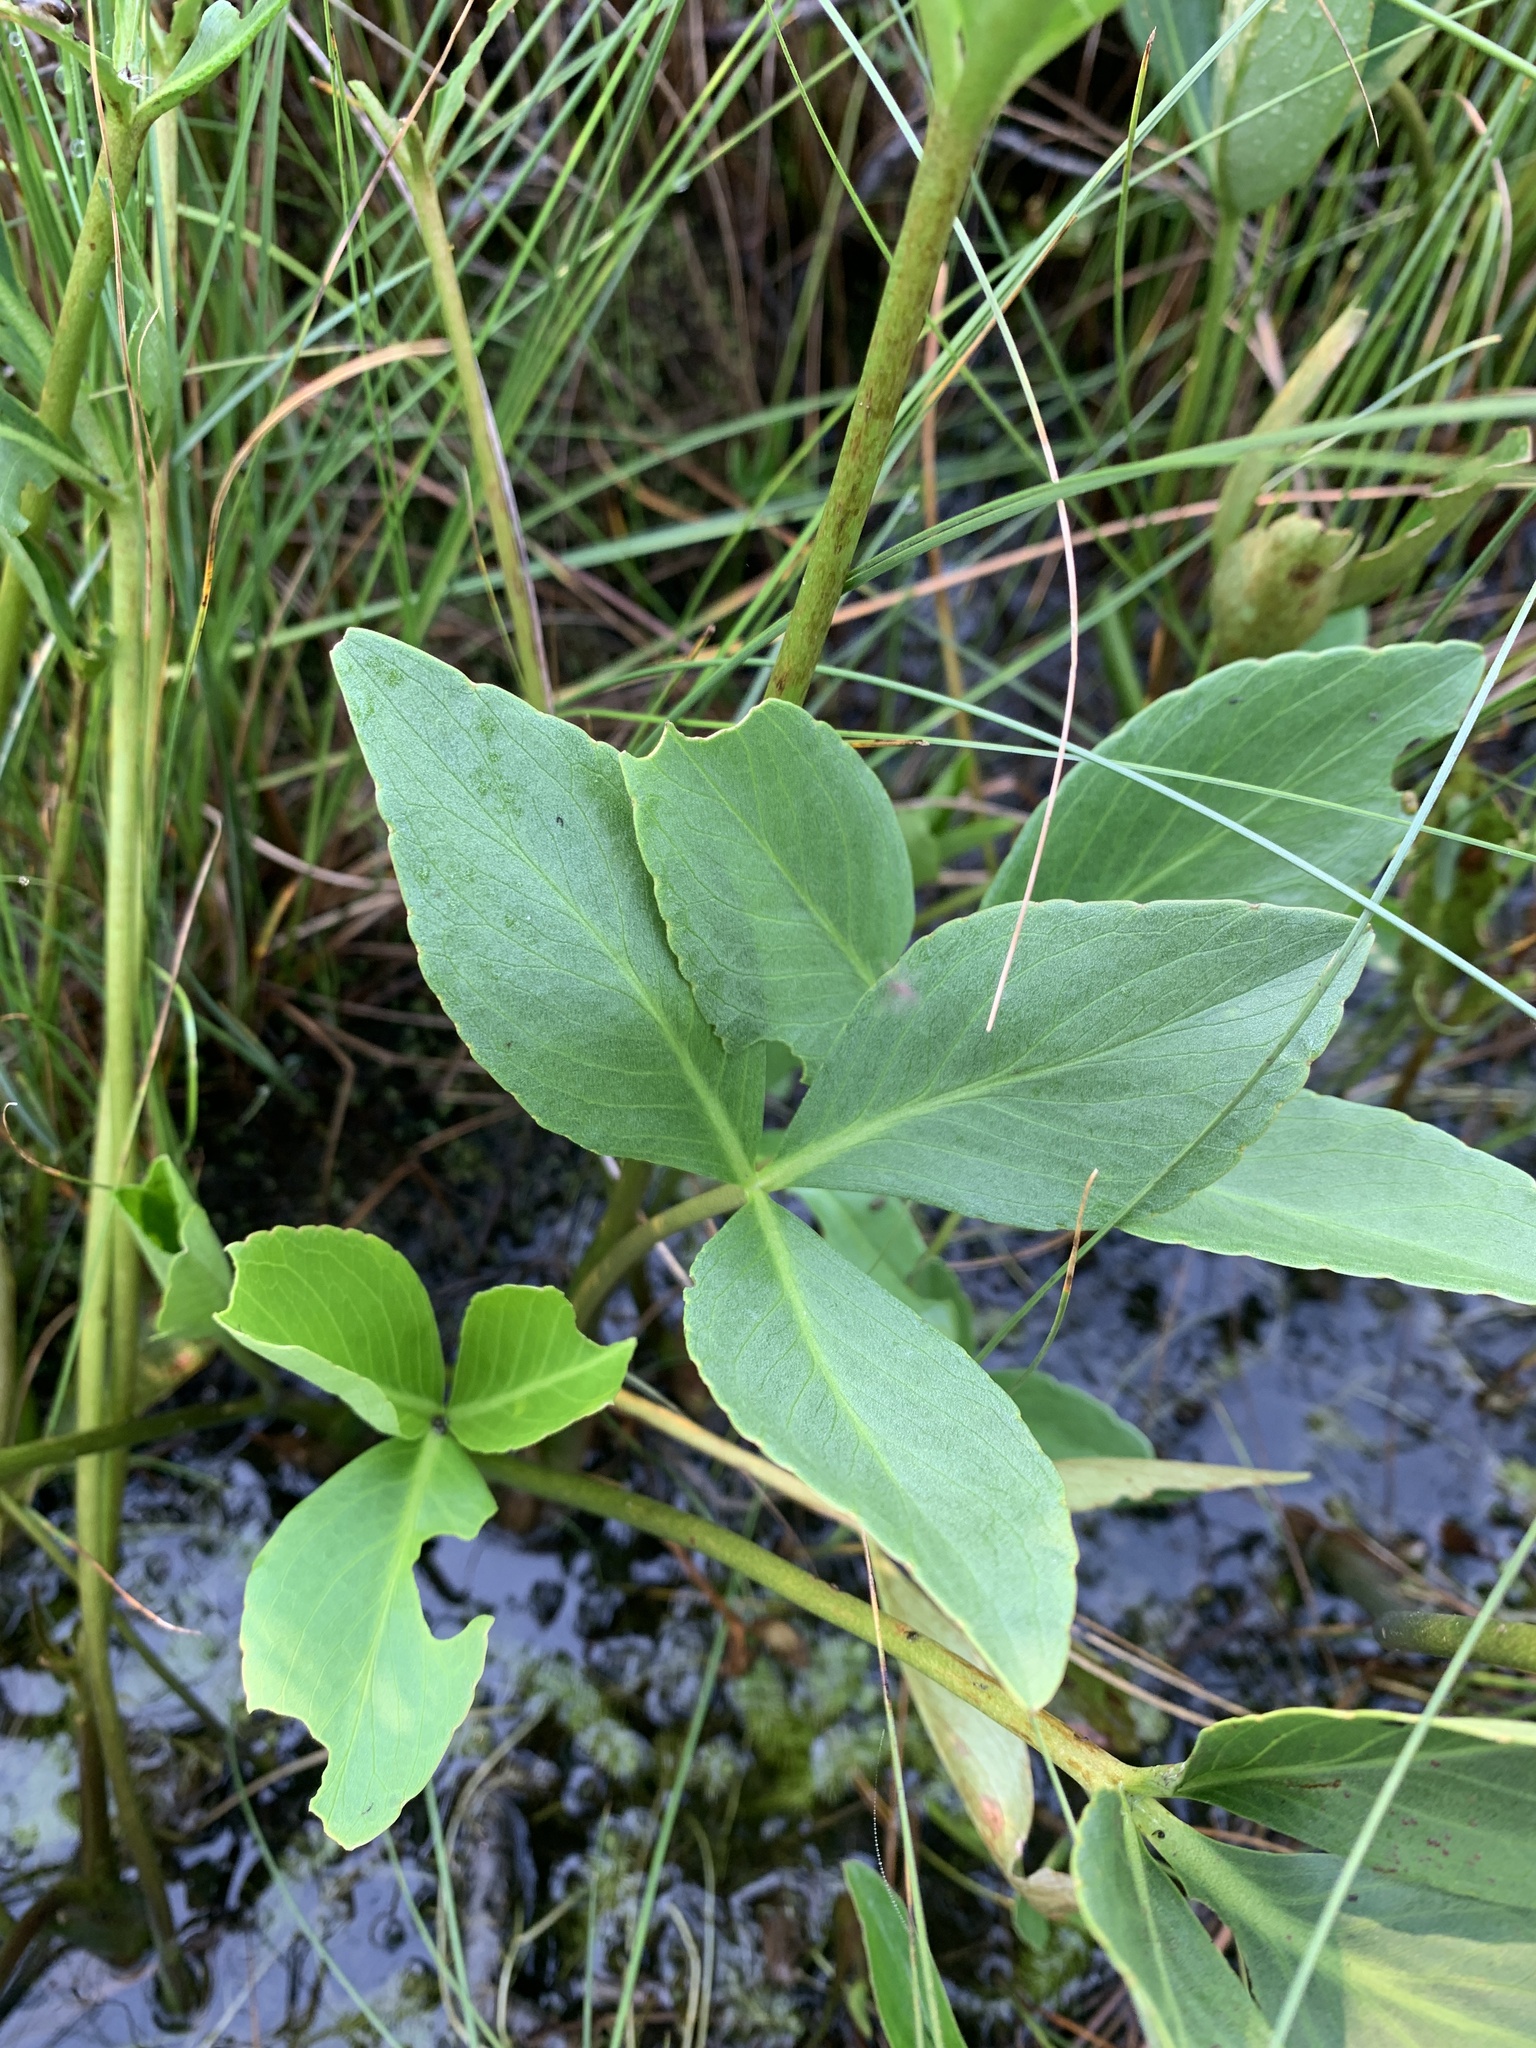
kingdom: Plantae
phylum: Tracheophyta
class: Magnoliopsida
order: Asterales
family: Menyanthaceae
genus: Menyanthes
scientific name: Menyanthes trifoliata
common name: Bogbean
